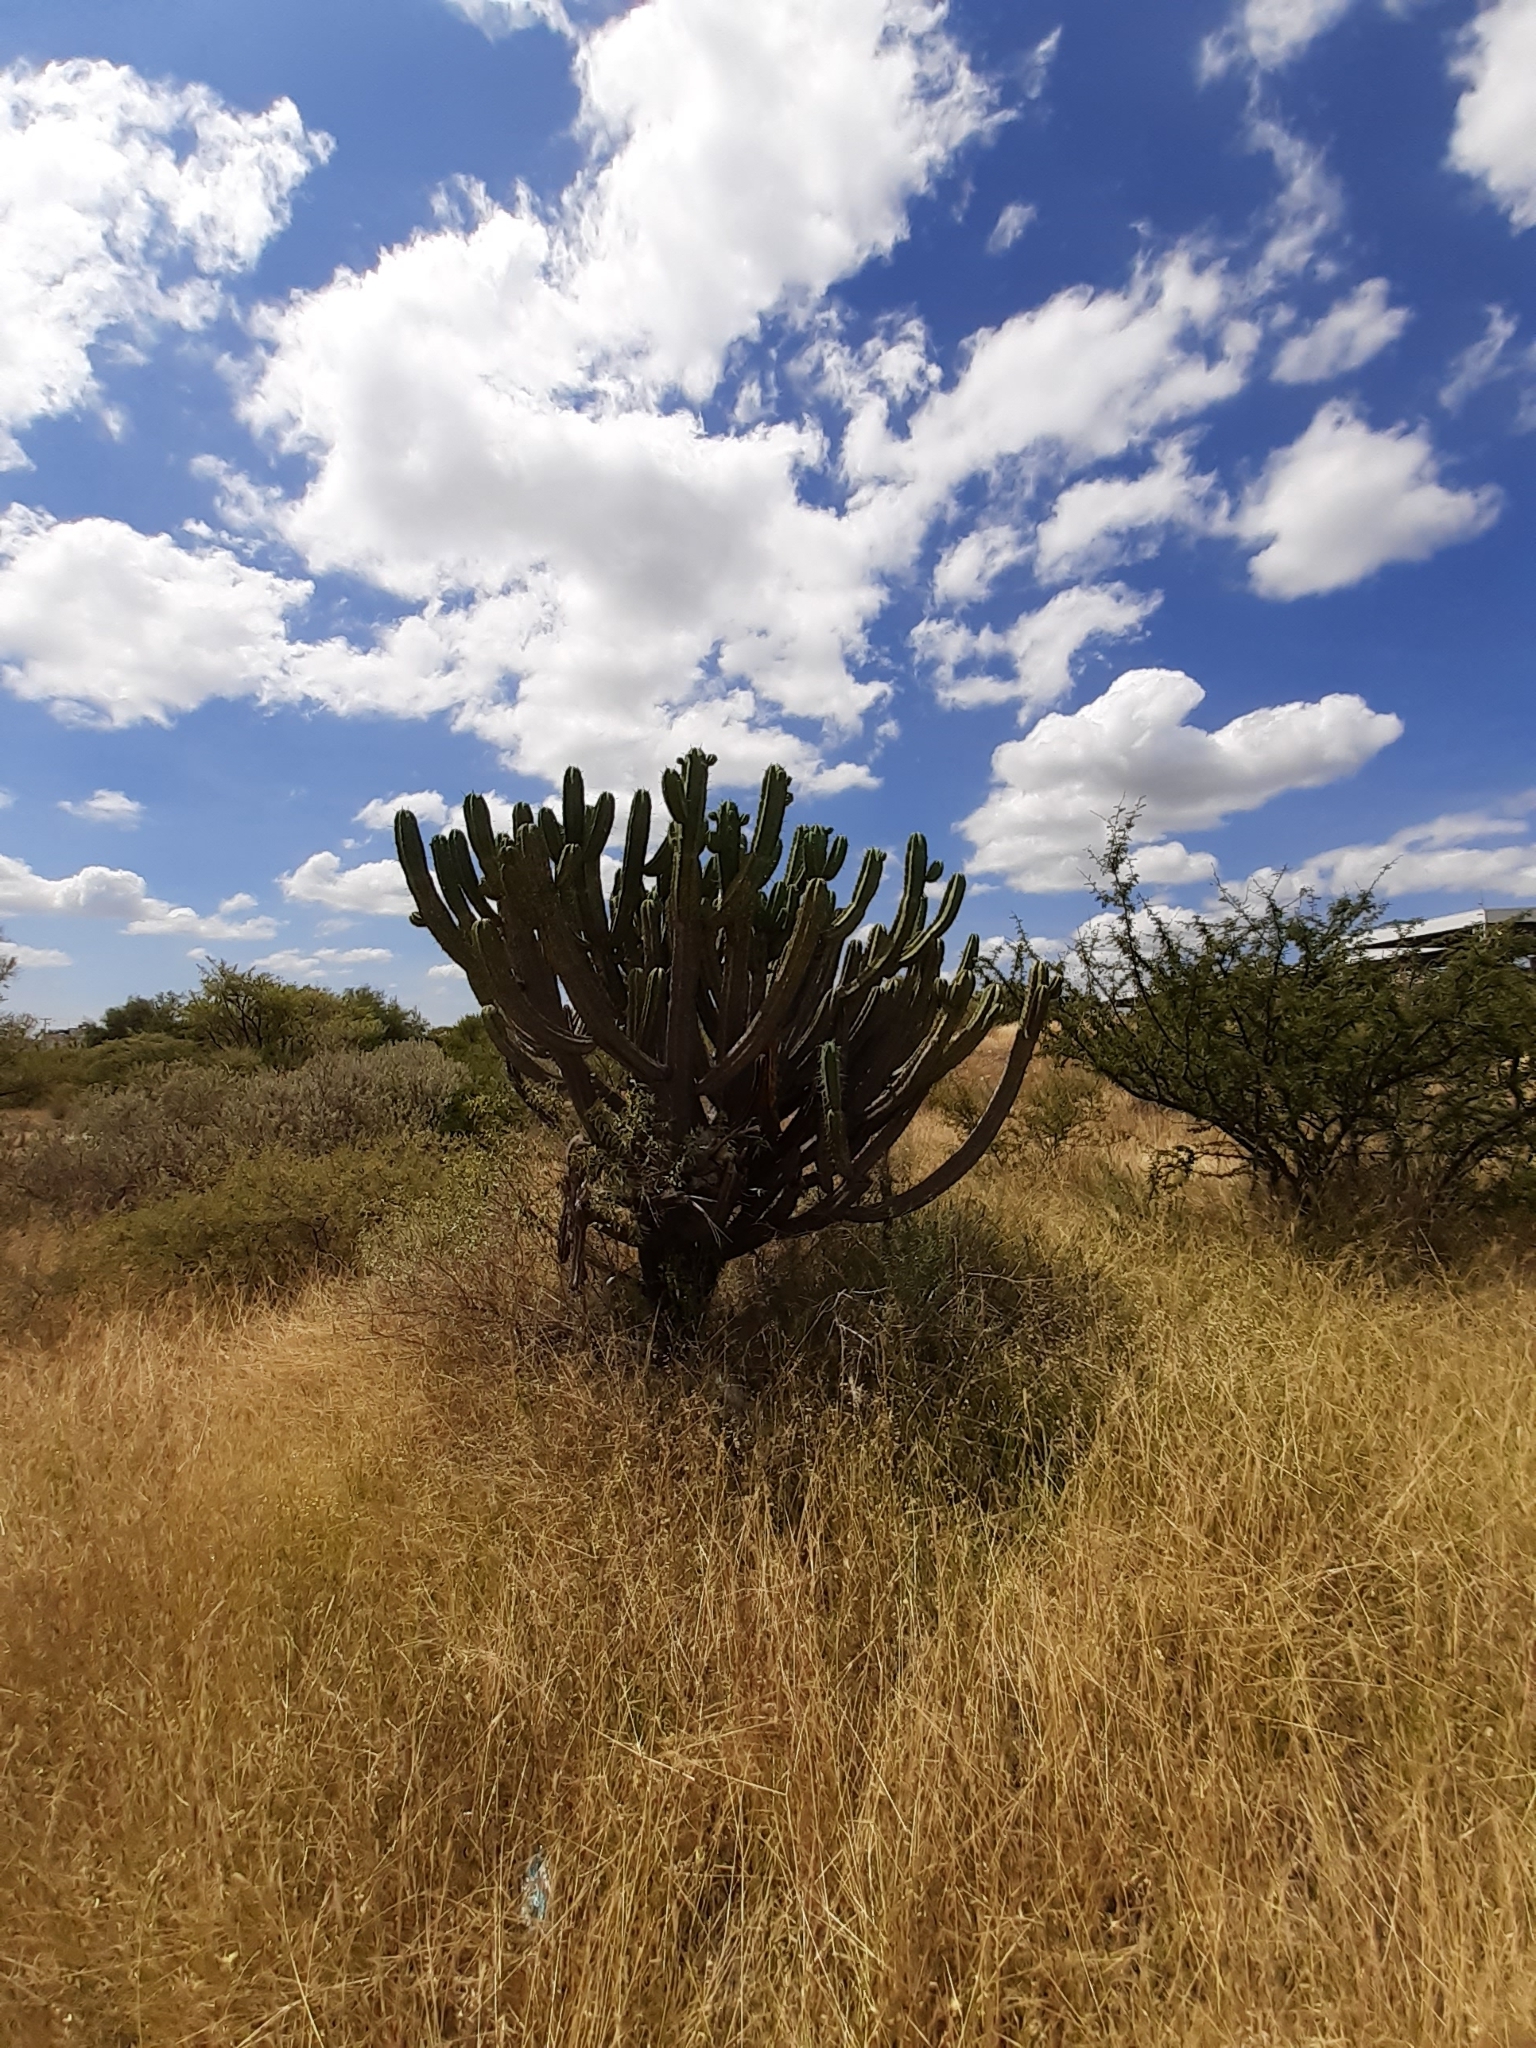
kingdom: Plantae
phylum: Tracheophyta
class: Magnoliopsida
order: Caryophyllales
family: Cactaceae
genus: Myrtillocactus
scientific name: Myrtillocactus geometrizans
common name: Bilberry cactus
